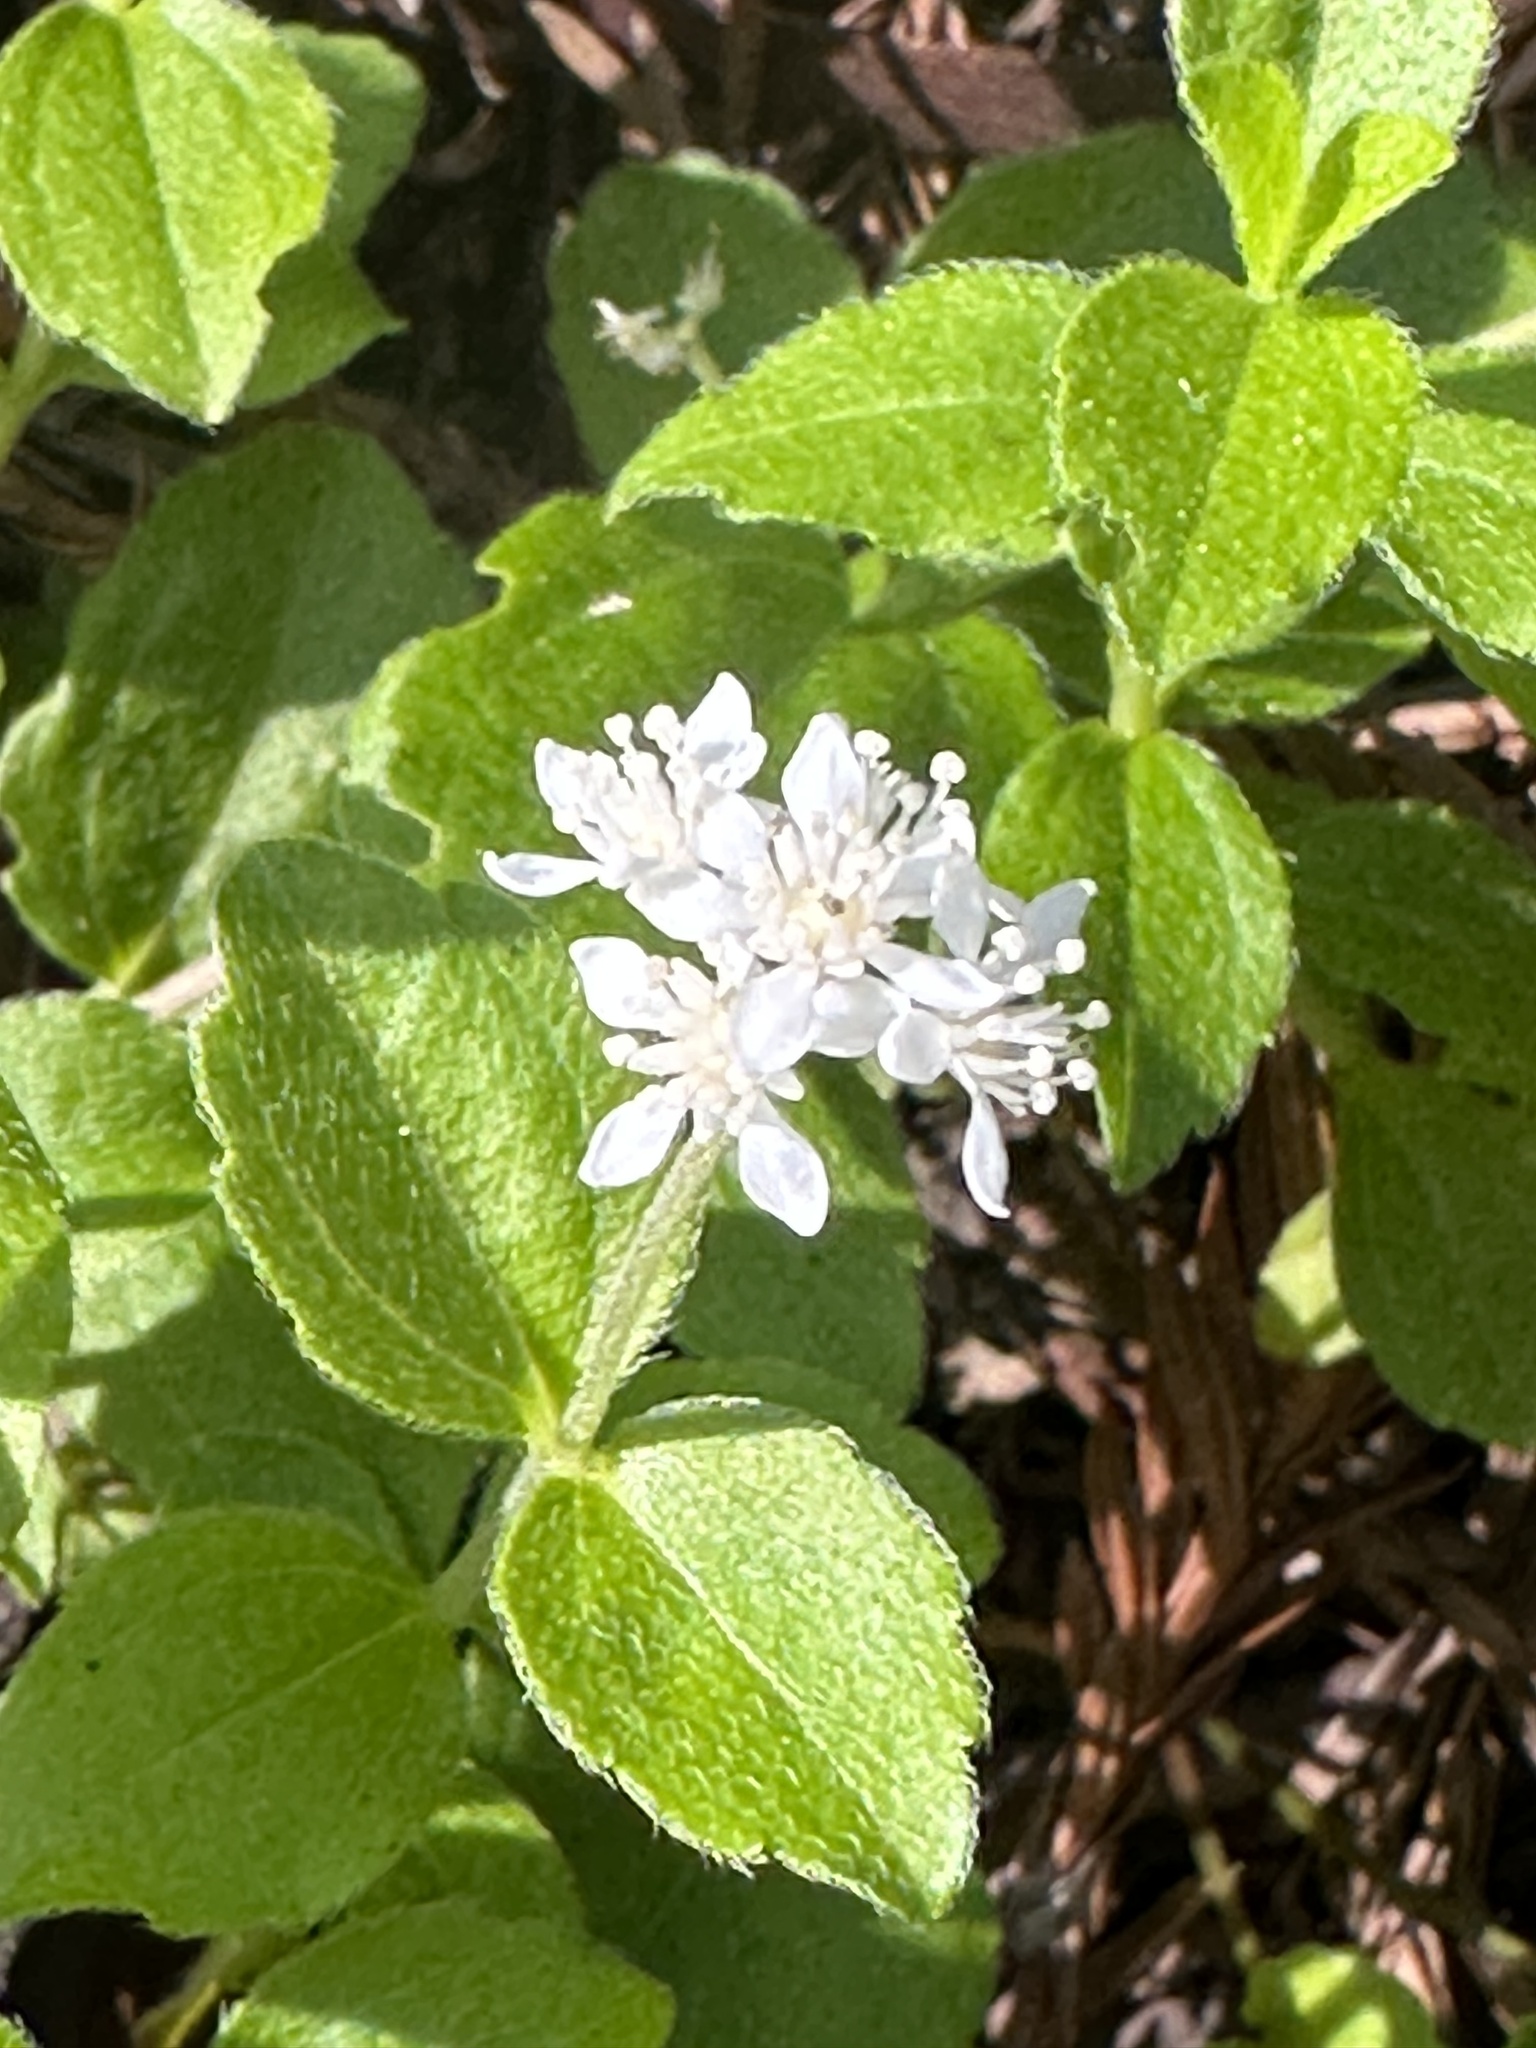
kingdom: Plantae
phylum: Tracheophyta
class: Magnoliopsida
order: Cornales
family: Hydrangeaceae
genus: Whipplea
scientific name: Whipplea modesta
